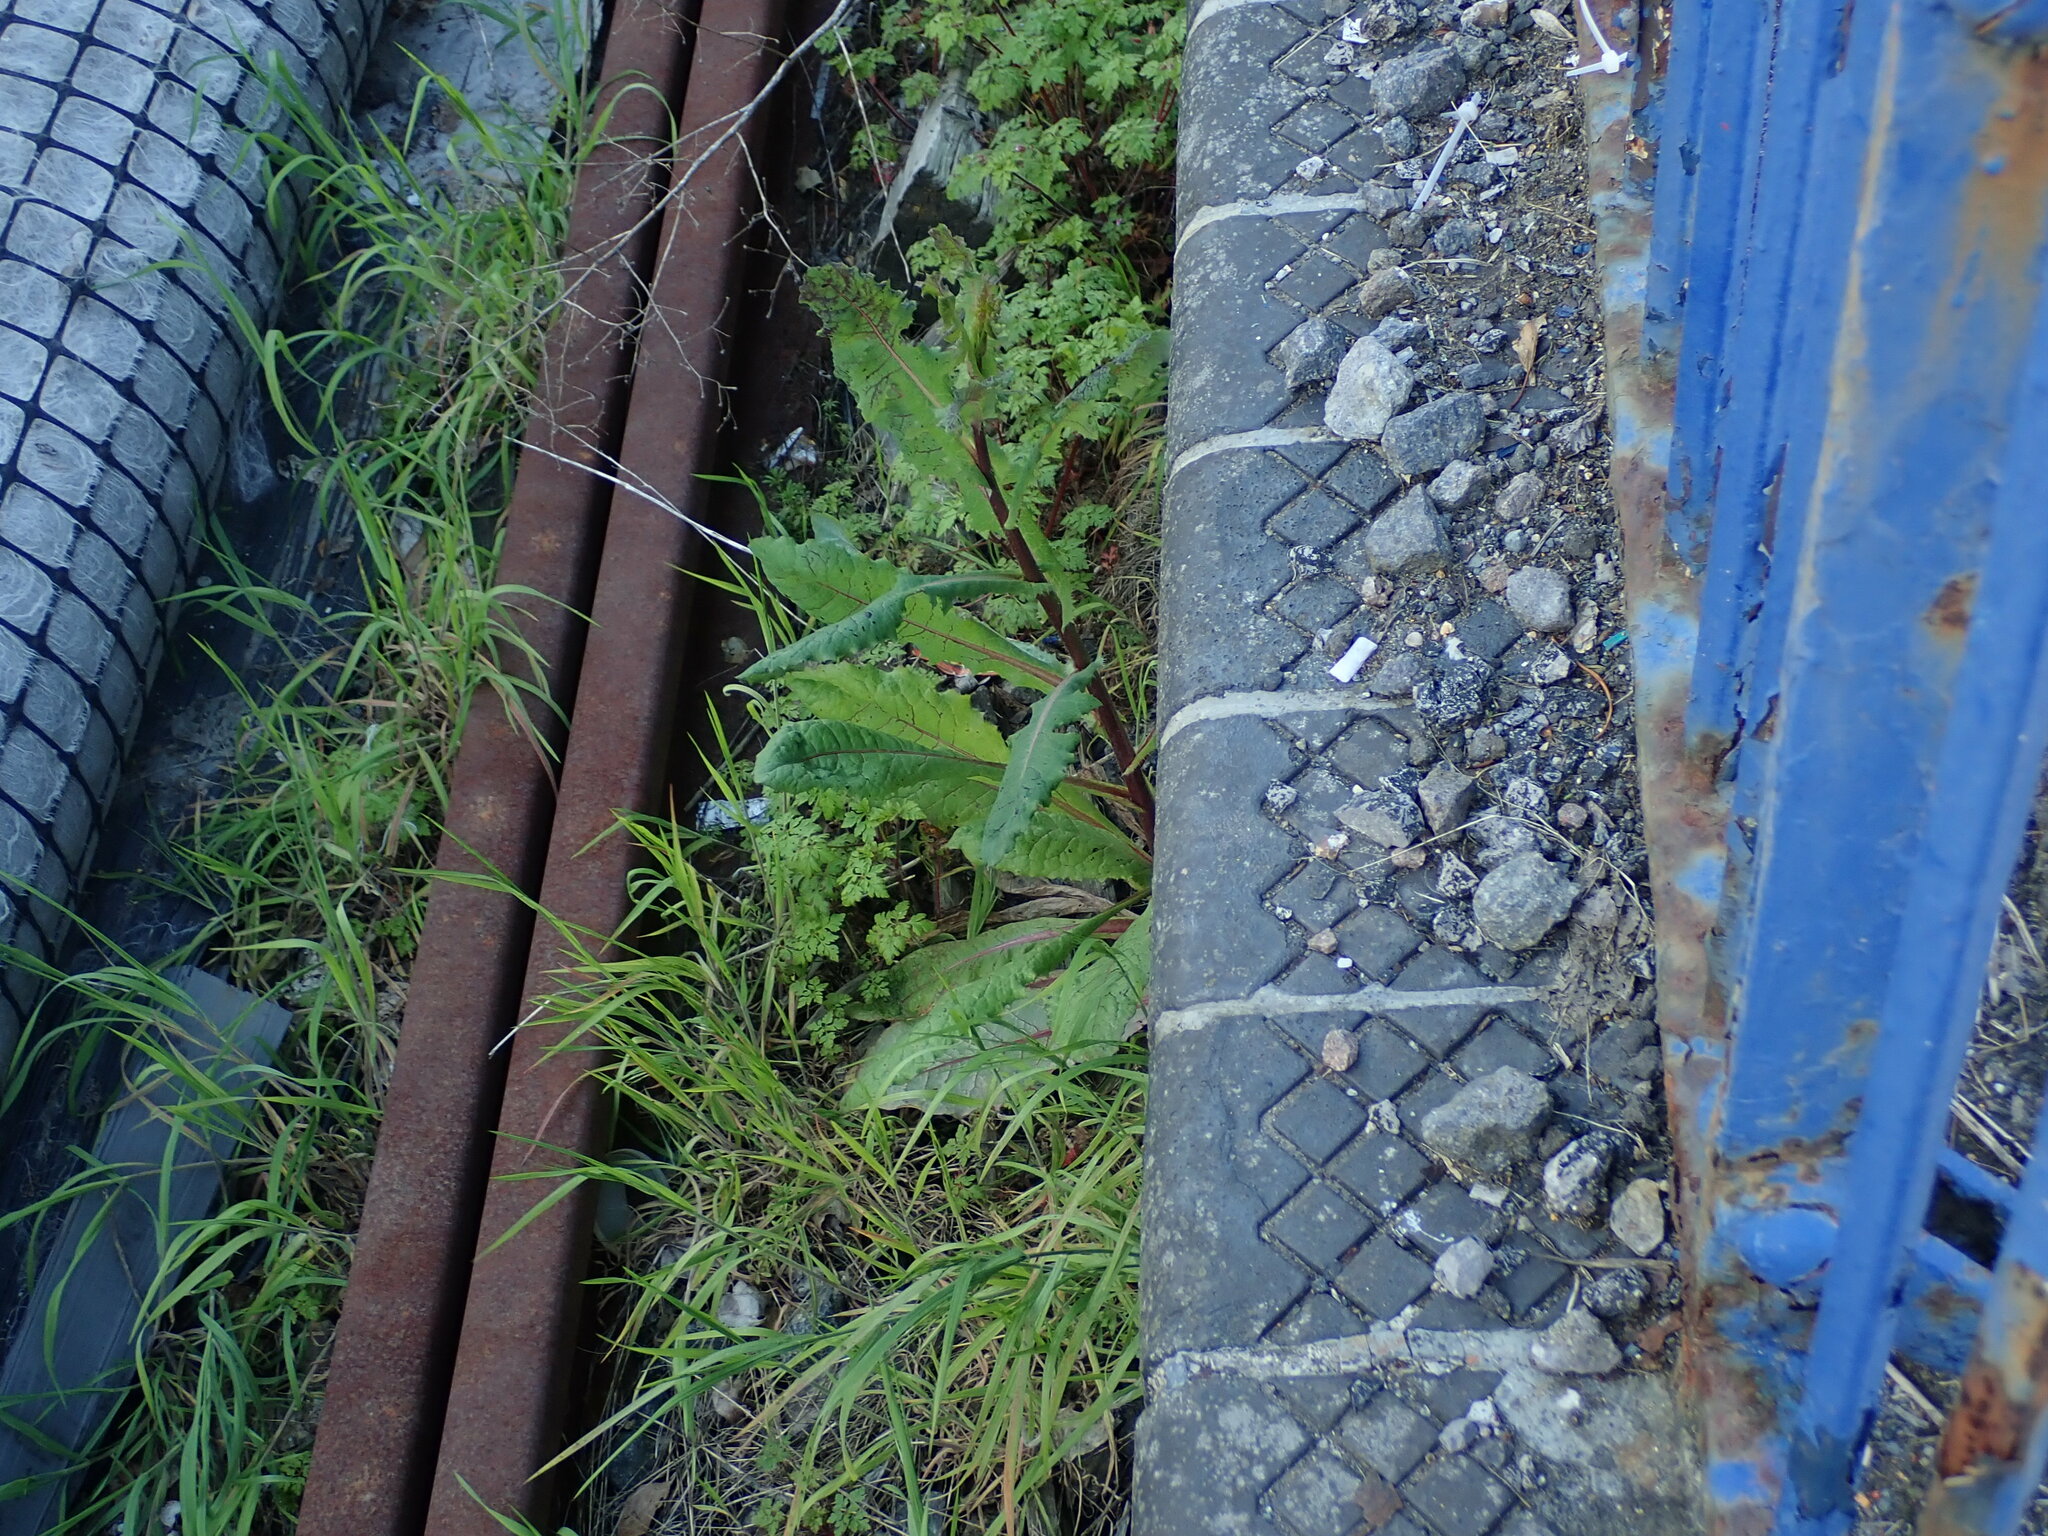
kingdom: Plantae
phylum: Tracheophyta
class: Magnoliopsida
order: Asterales
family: Asteraceae
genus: Lactuca
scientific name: Lactuca virosa
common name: Great lettuce
